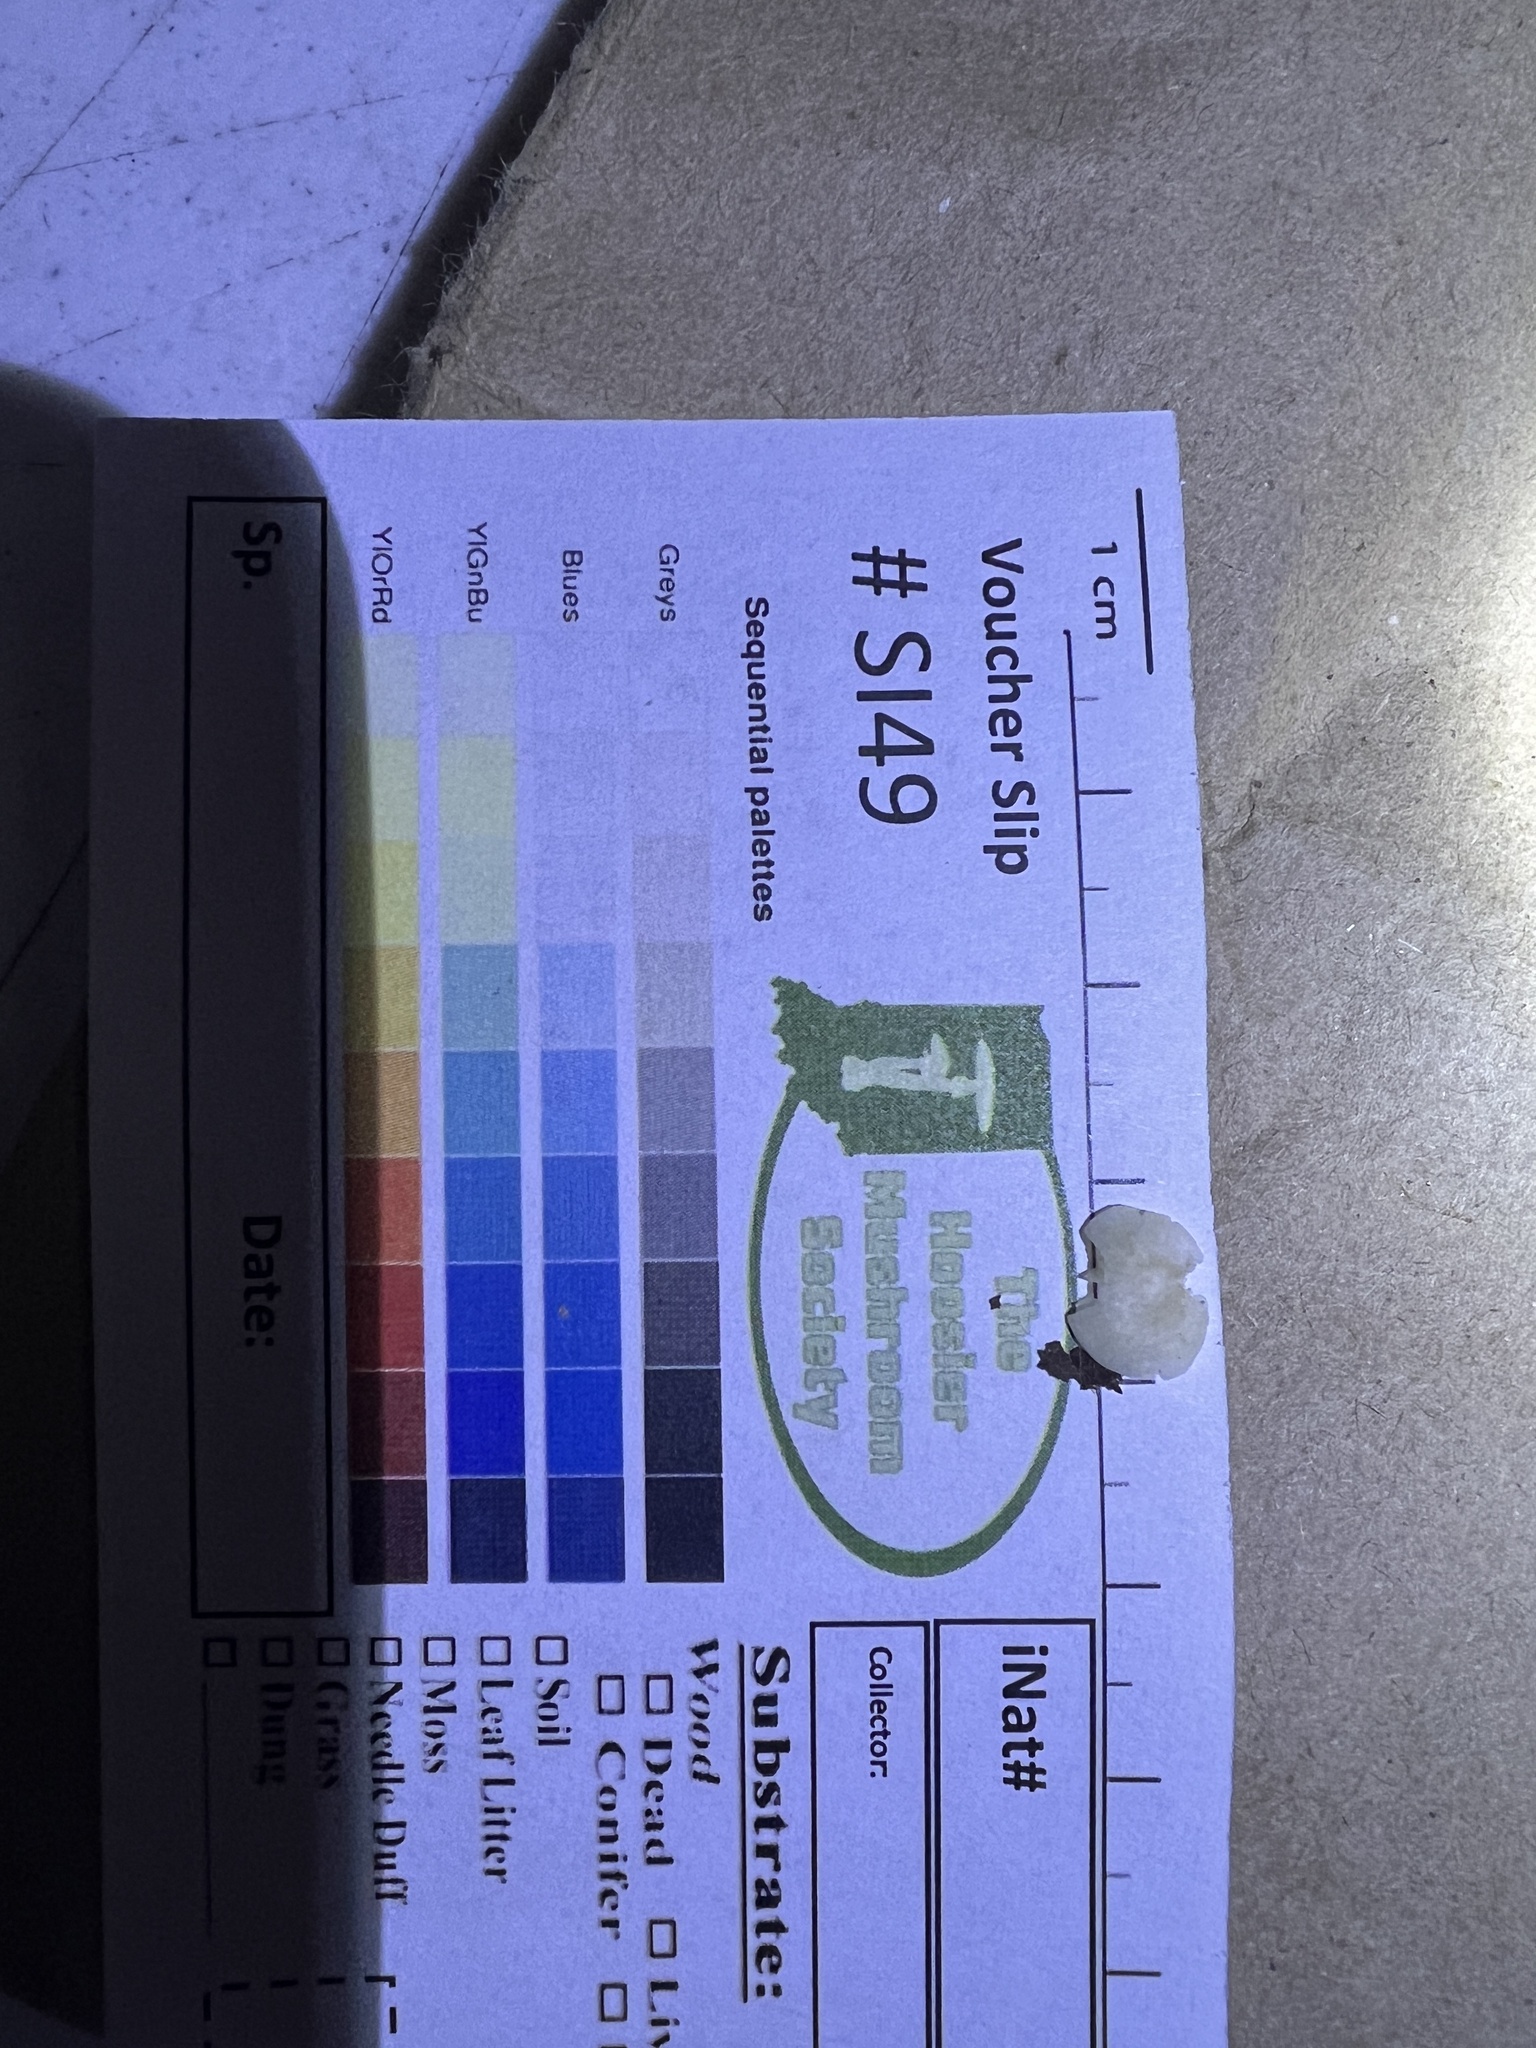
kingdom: Fungi
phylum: Basidiomycota
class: Agaricomycetes
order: Agaricales
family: Entolomataceae
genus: Entoloma
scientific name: Entoloma byssisedum
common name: Oysterling pinkgill
